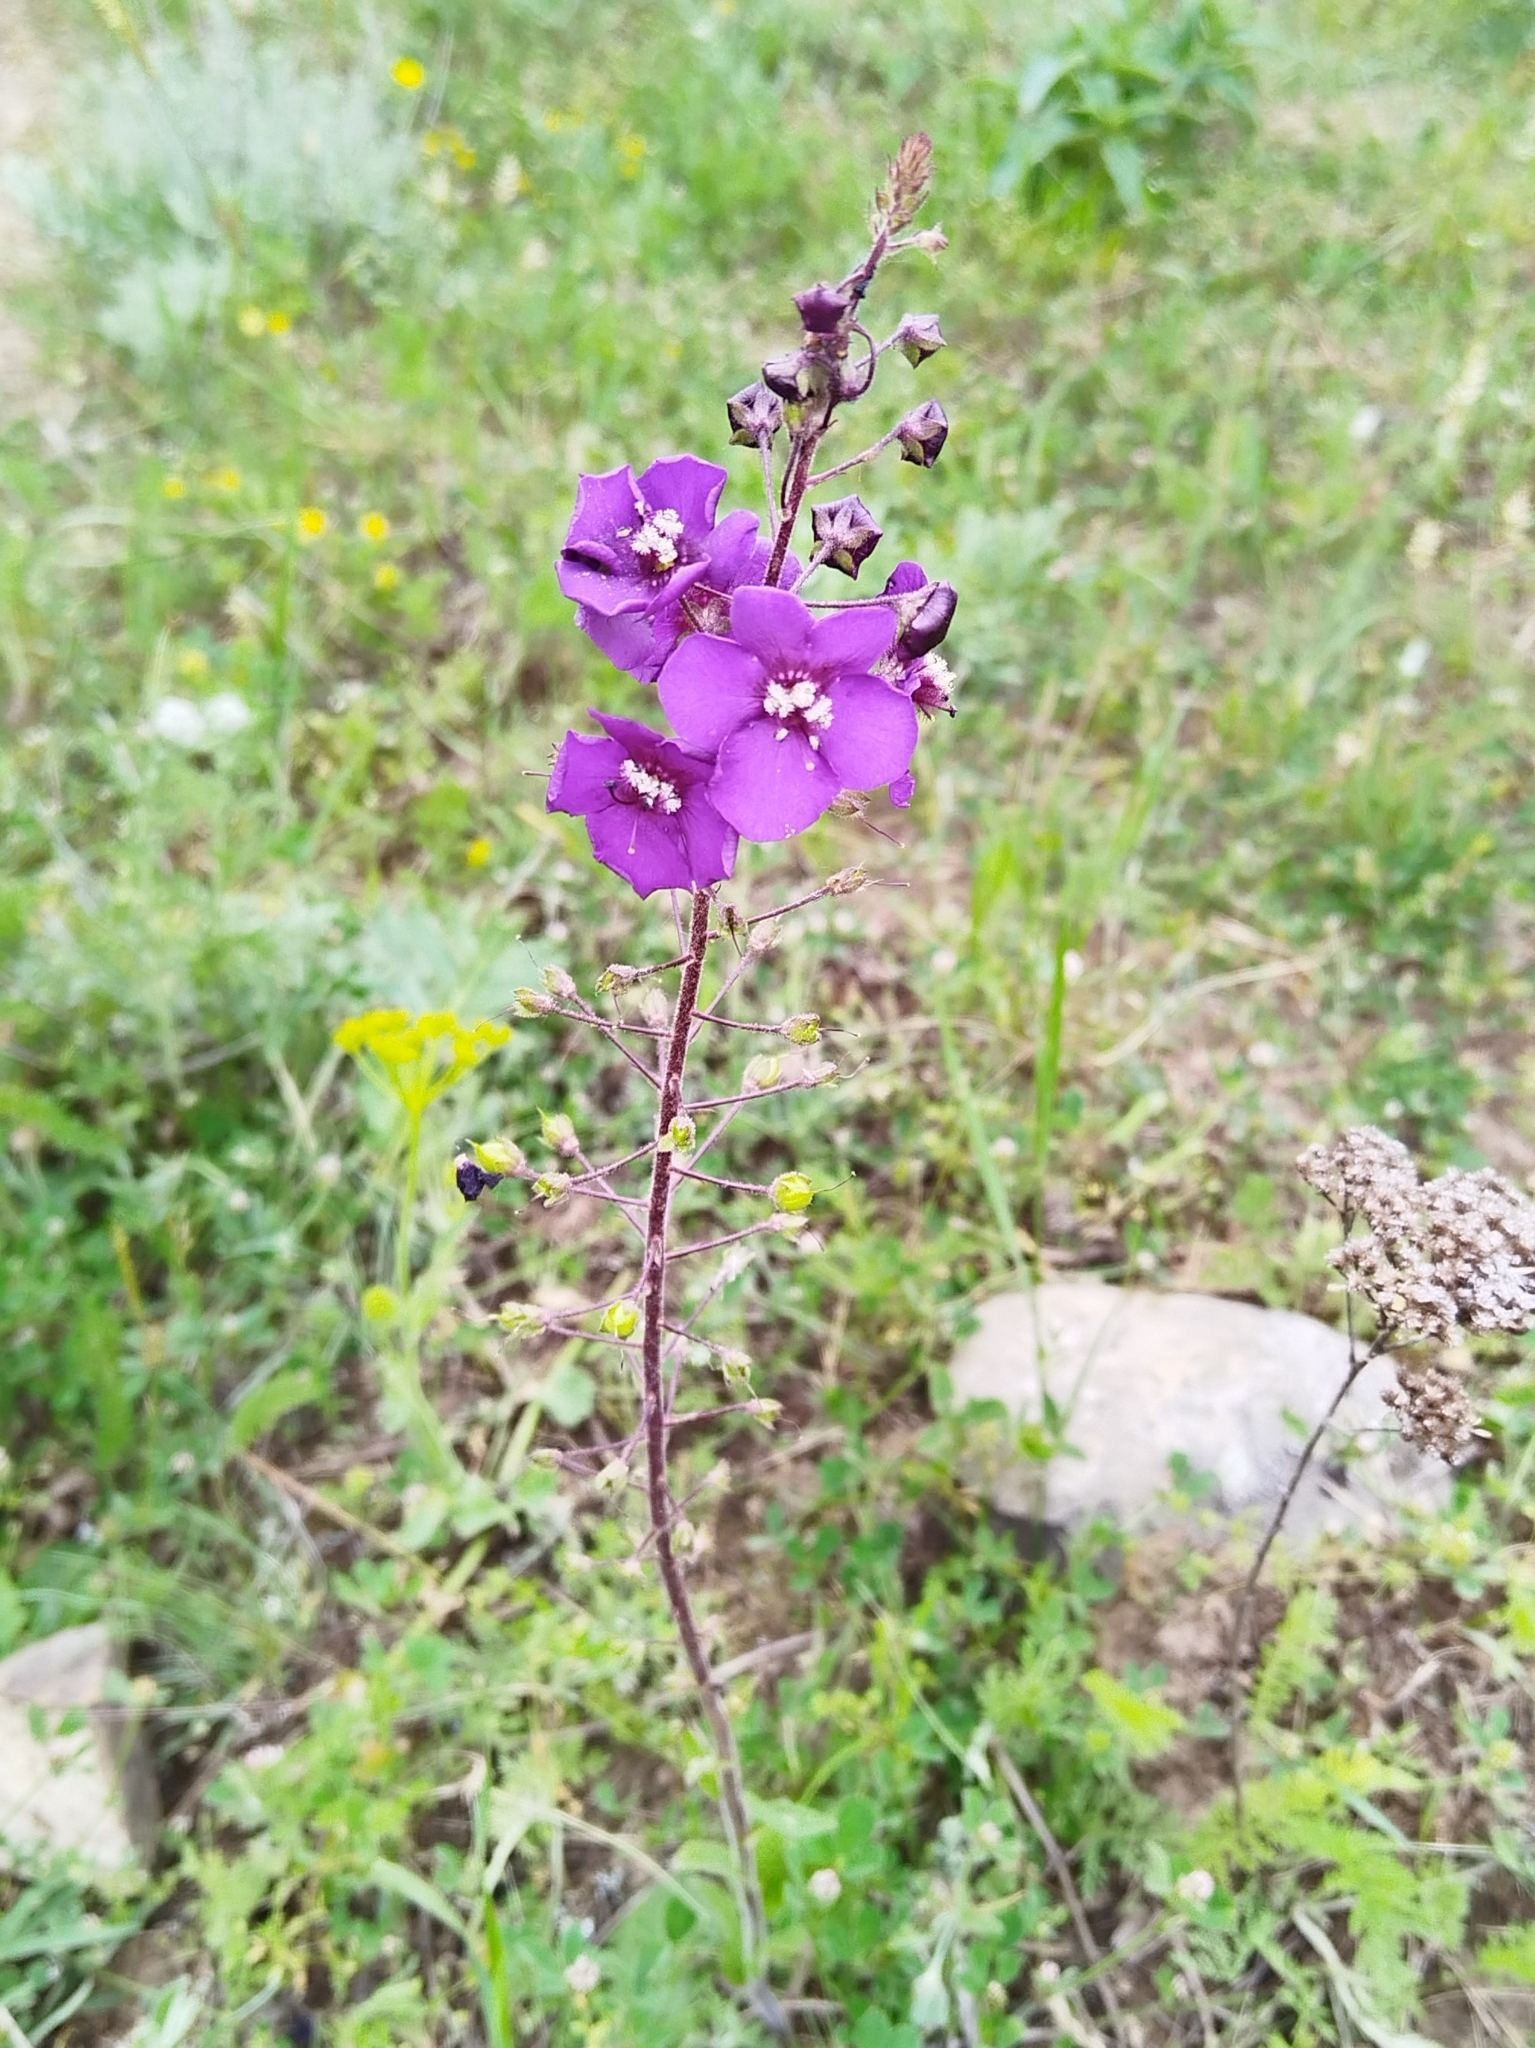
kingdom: Plantae
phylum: Tracheophyta
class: Magnoliopsida
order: Lamiales
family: Scrophulariaceae
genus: Verbascum
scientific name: Verbascum phoeniceum
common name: Purple mullein
